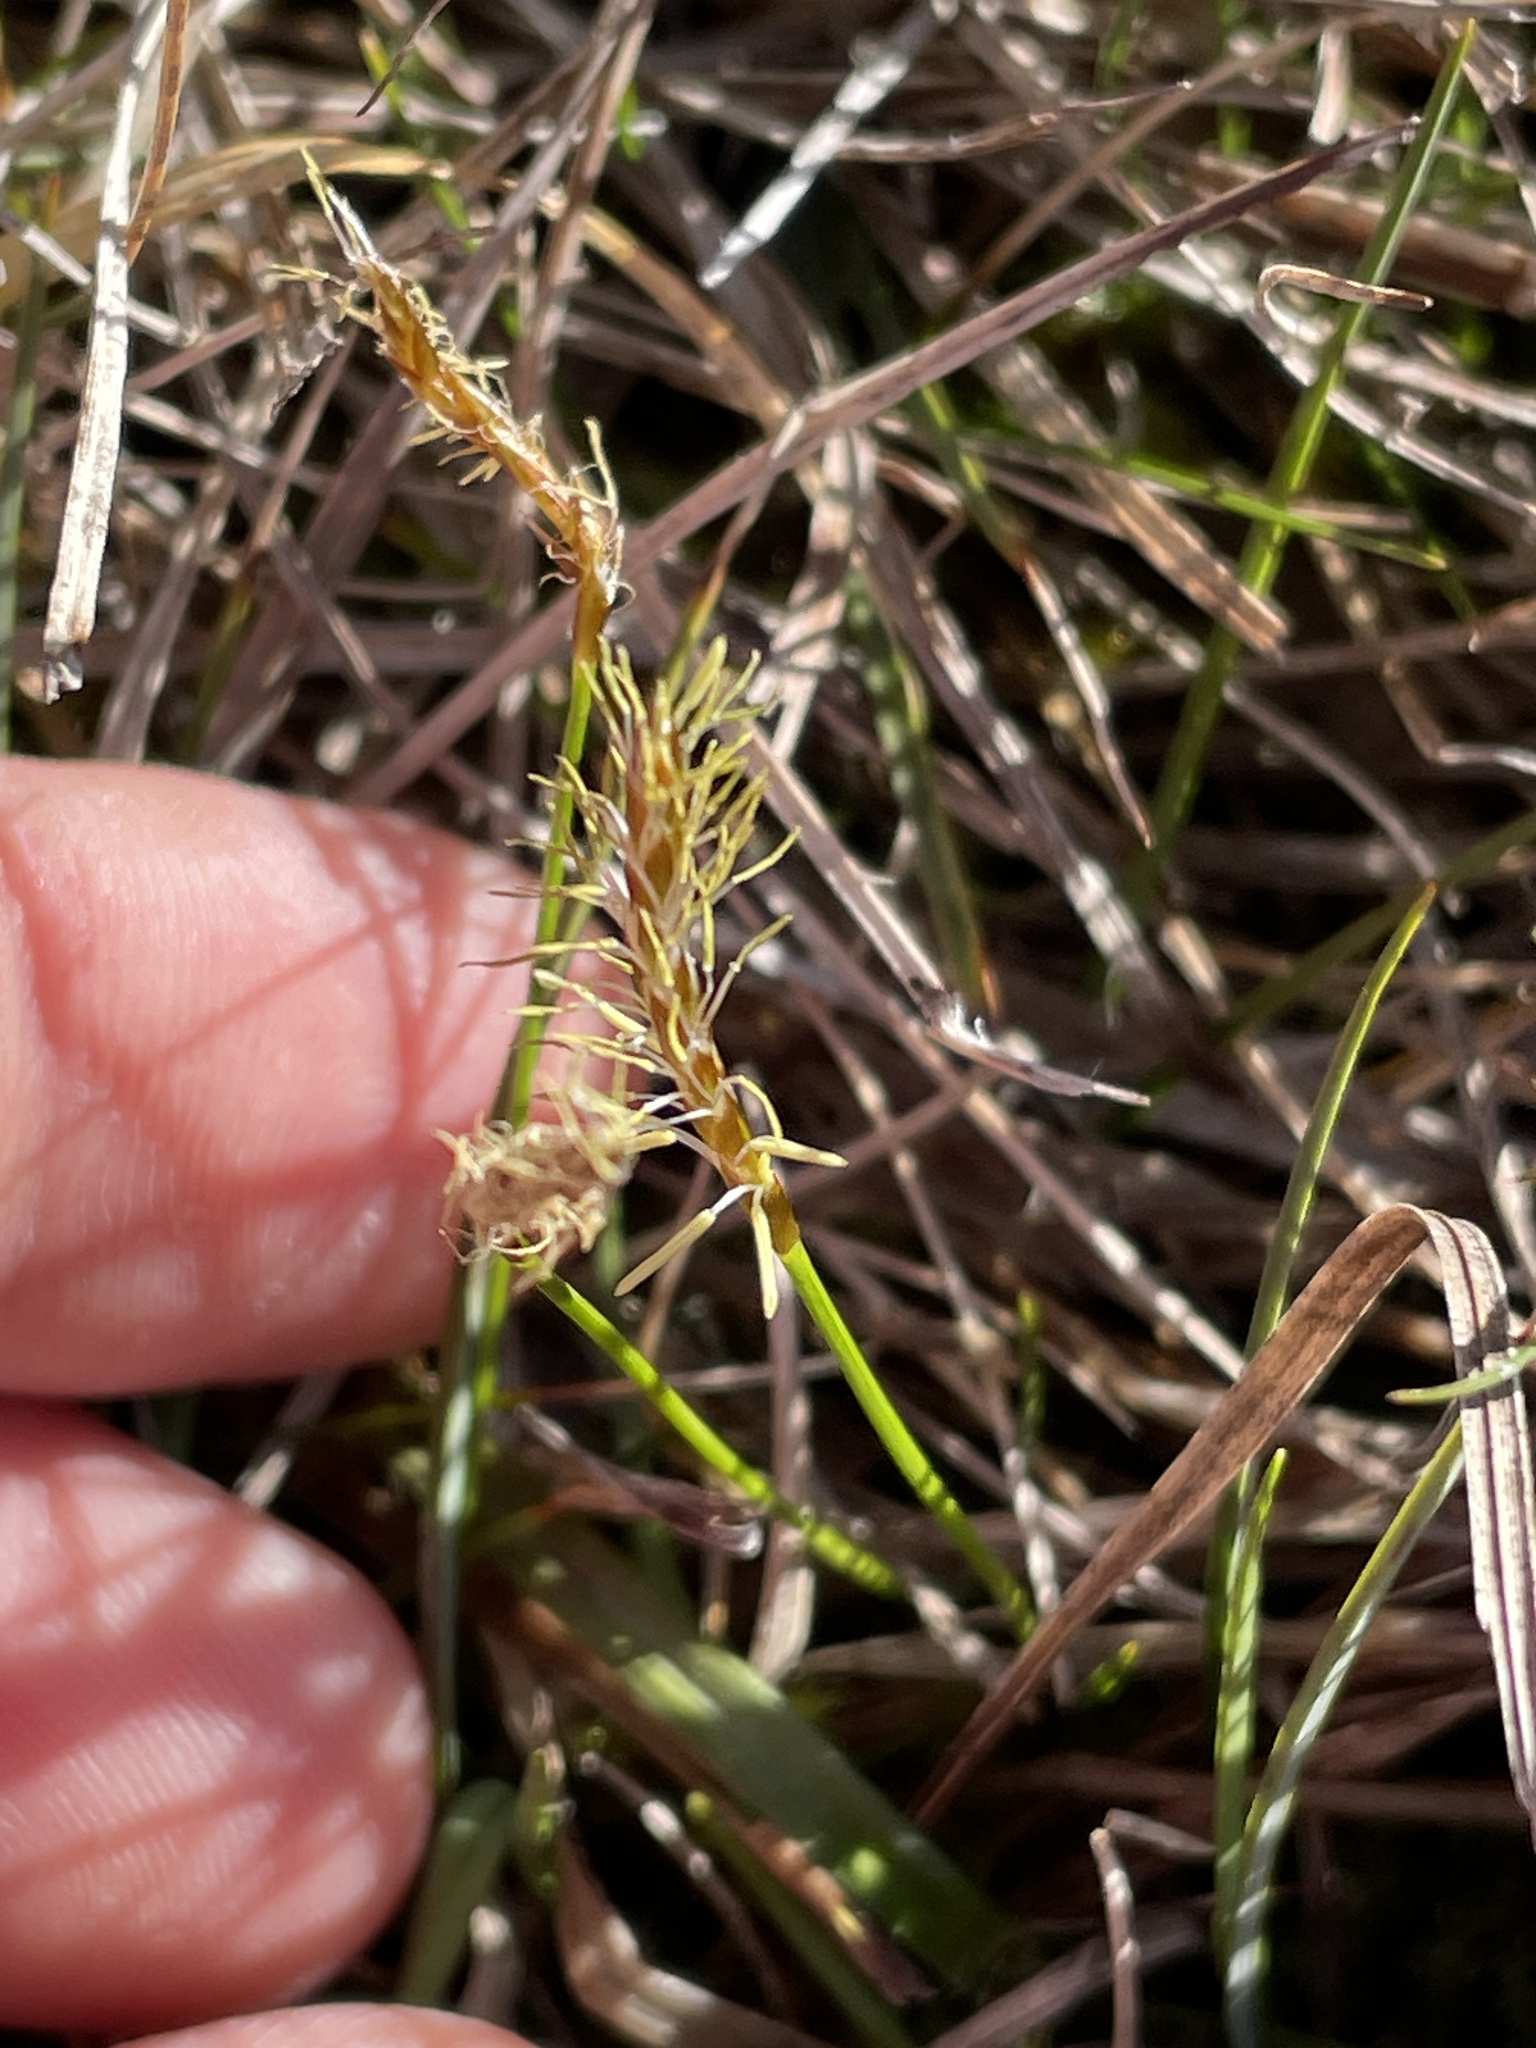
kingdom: Plantae
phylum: Tracheophyta
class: Liliopsida
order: Poales
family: Cyperaceae
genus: Carex
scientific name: Carex davalliana
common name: Davall's sedge
